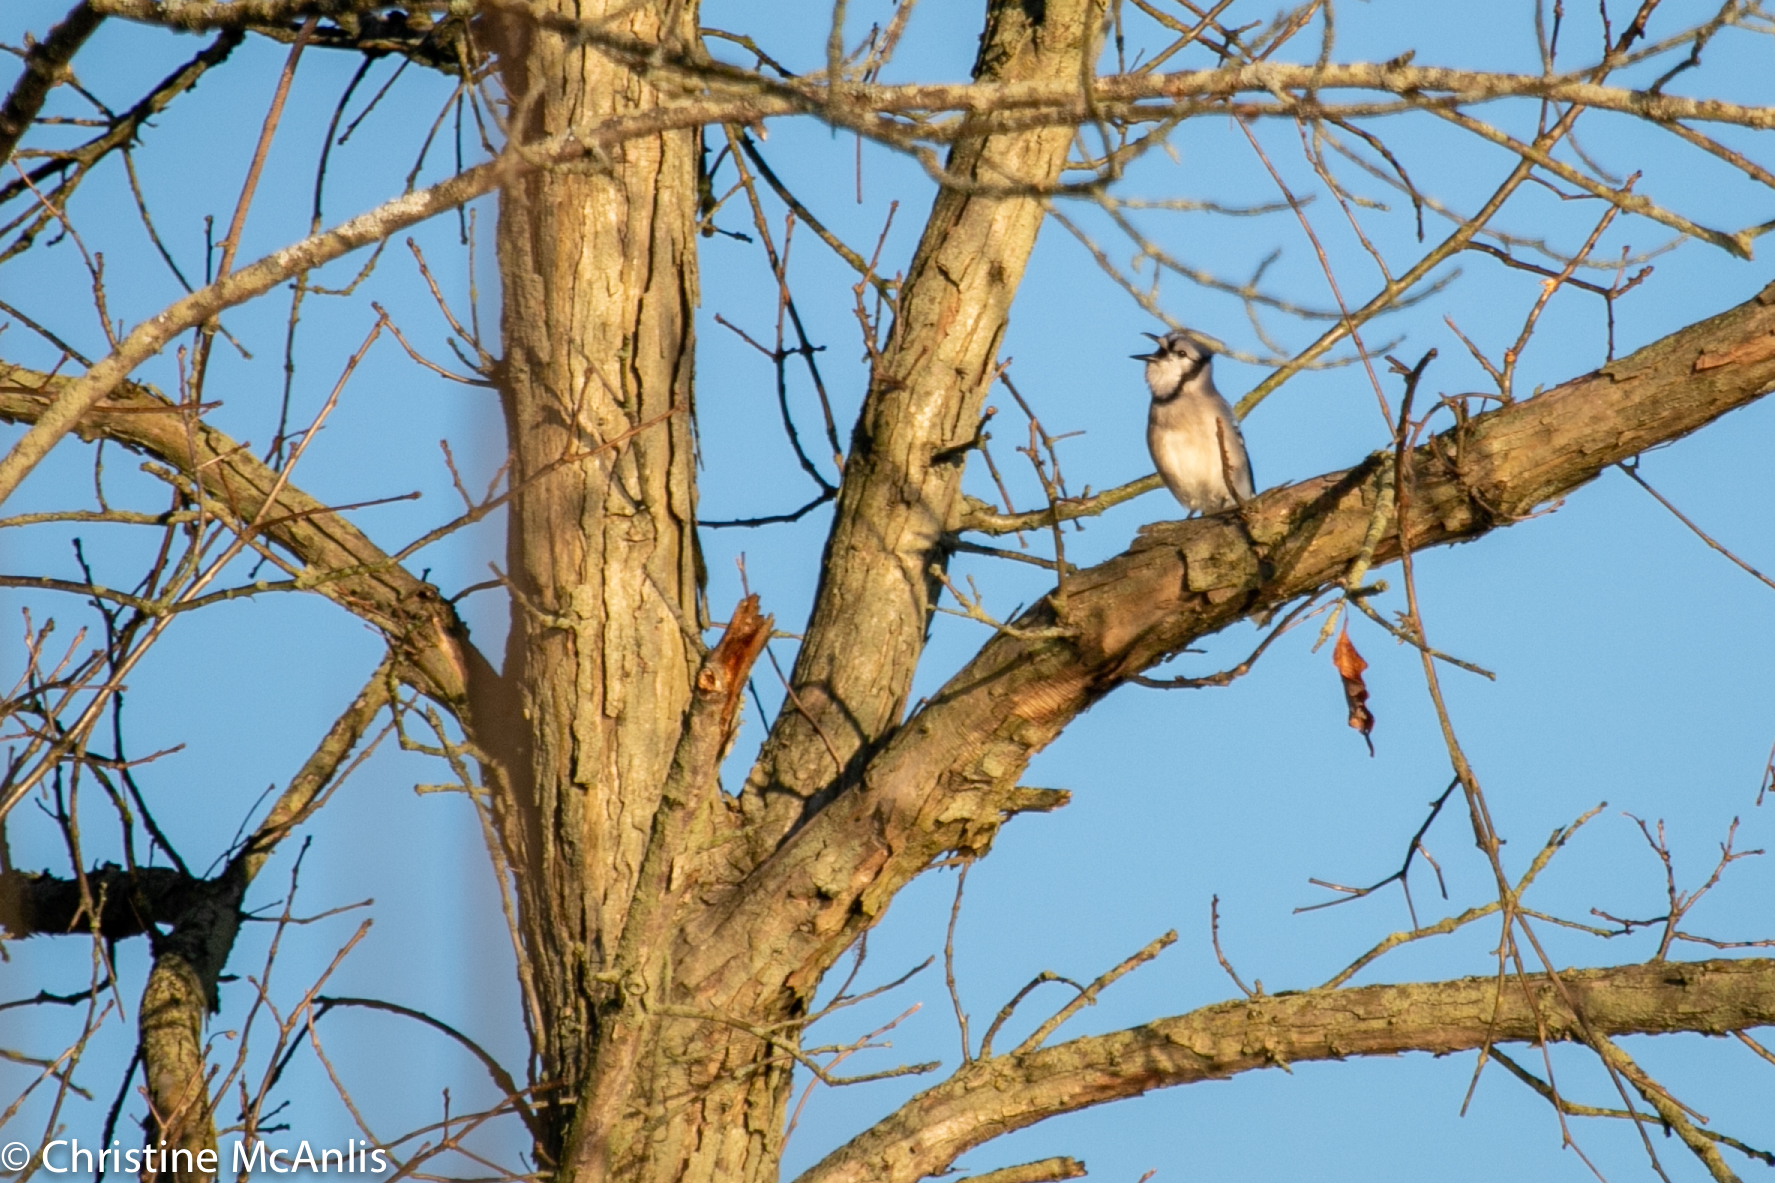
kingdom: Animalia
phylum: Chordata
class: Aves
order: Passeriformes
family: Corvidae
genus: Cyanocitta
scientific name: Cyanocitta cristata
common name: Blue jay
